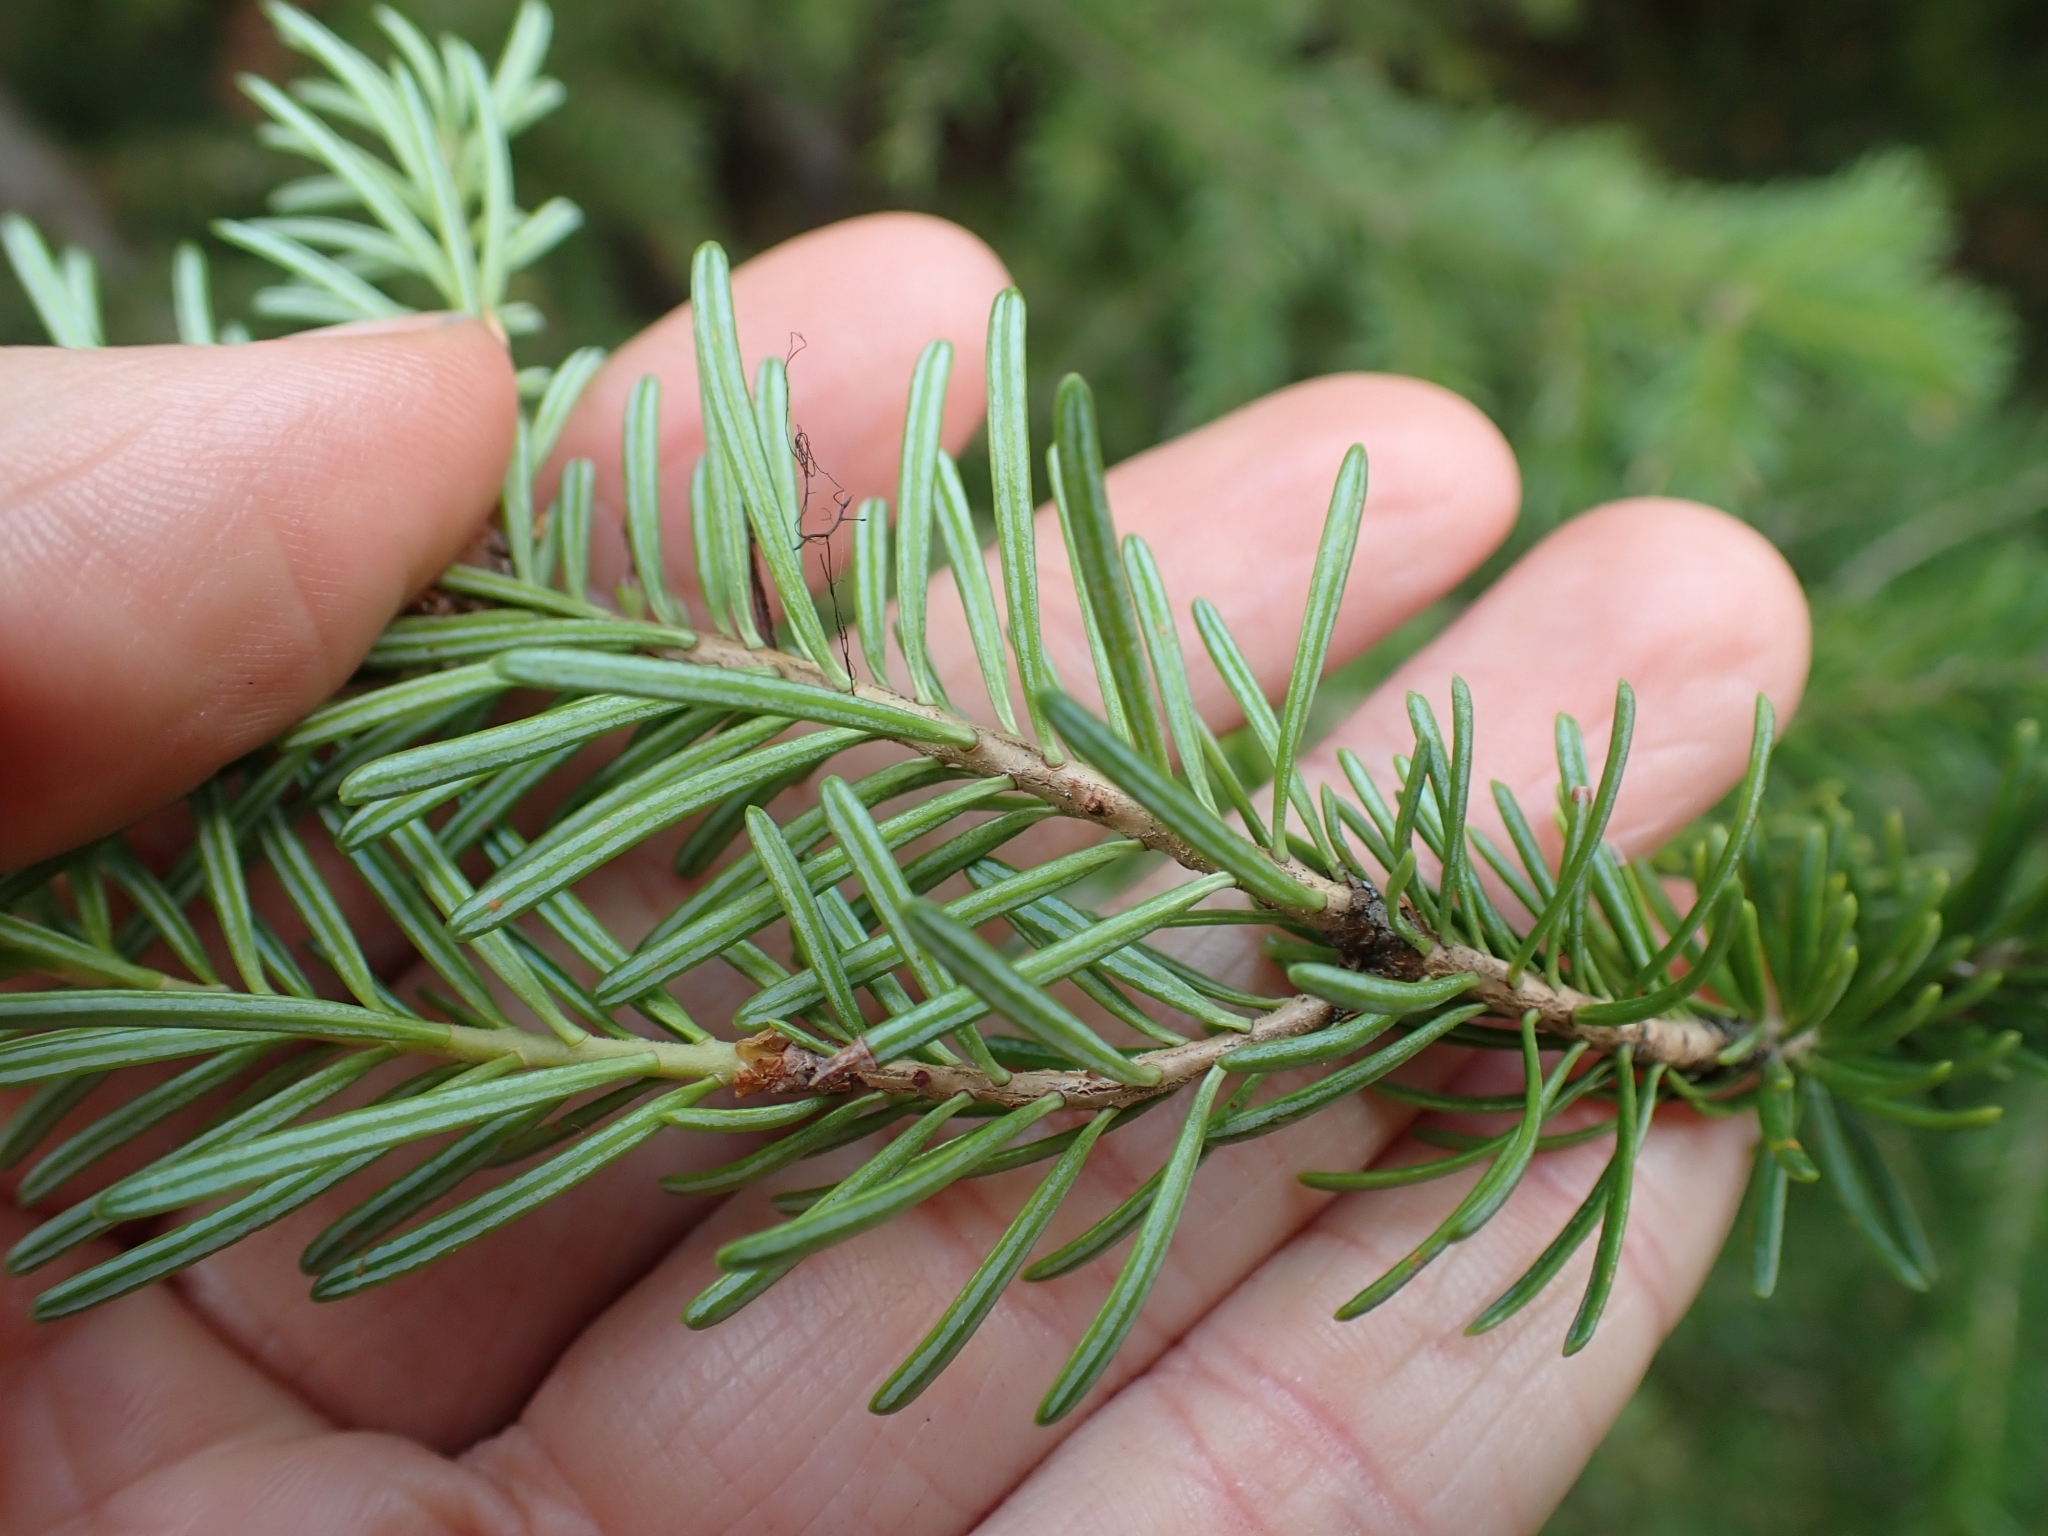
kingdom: Plantae
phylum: Tracheophyta
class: Pinopsida
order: Pinales
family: Pinaceae
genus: Abies
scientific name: Abies lasiocarpa
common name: Subalpine fir
